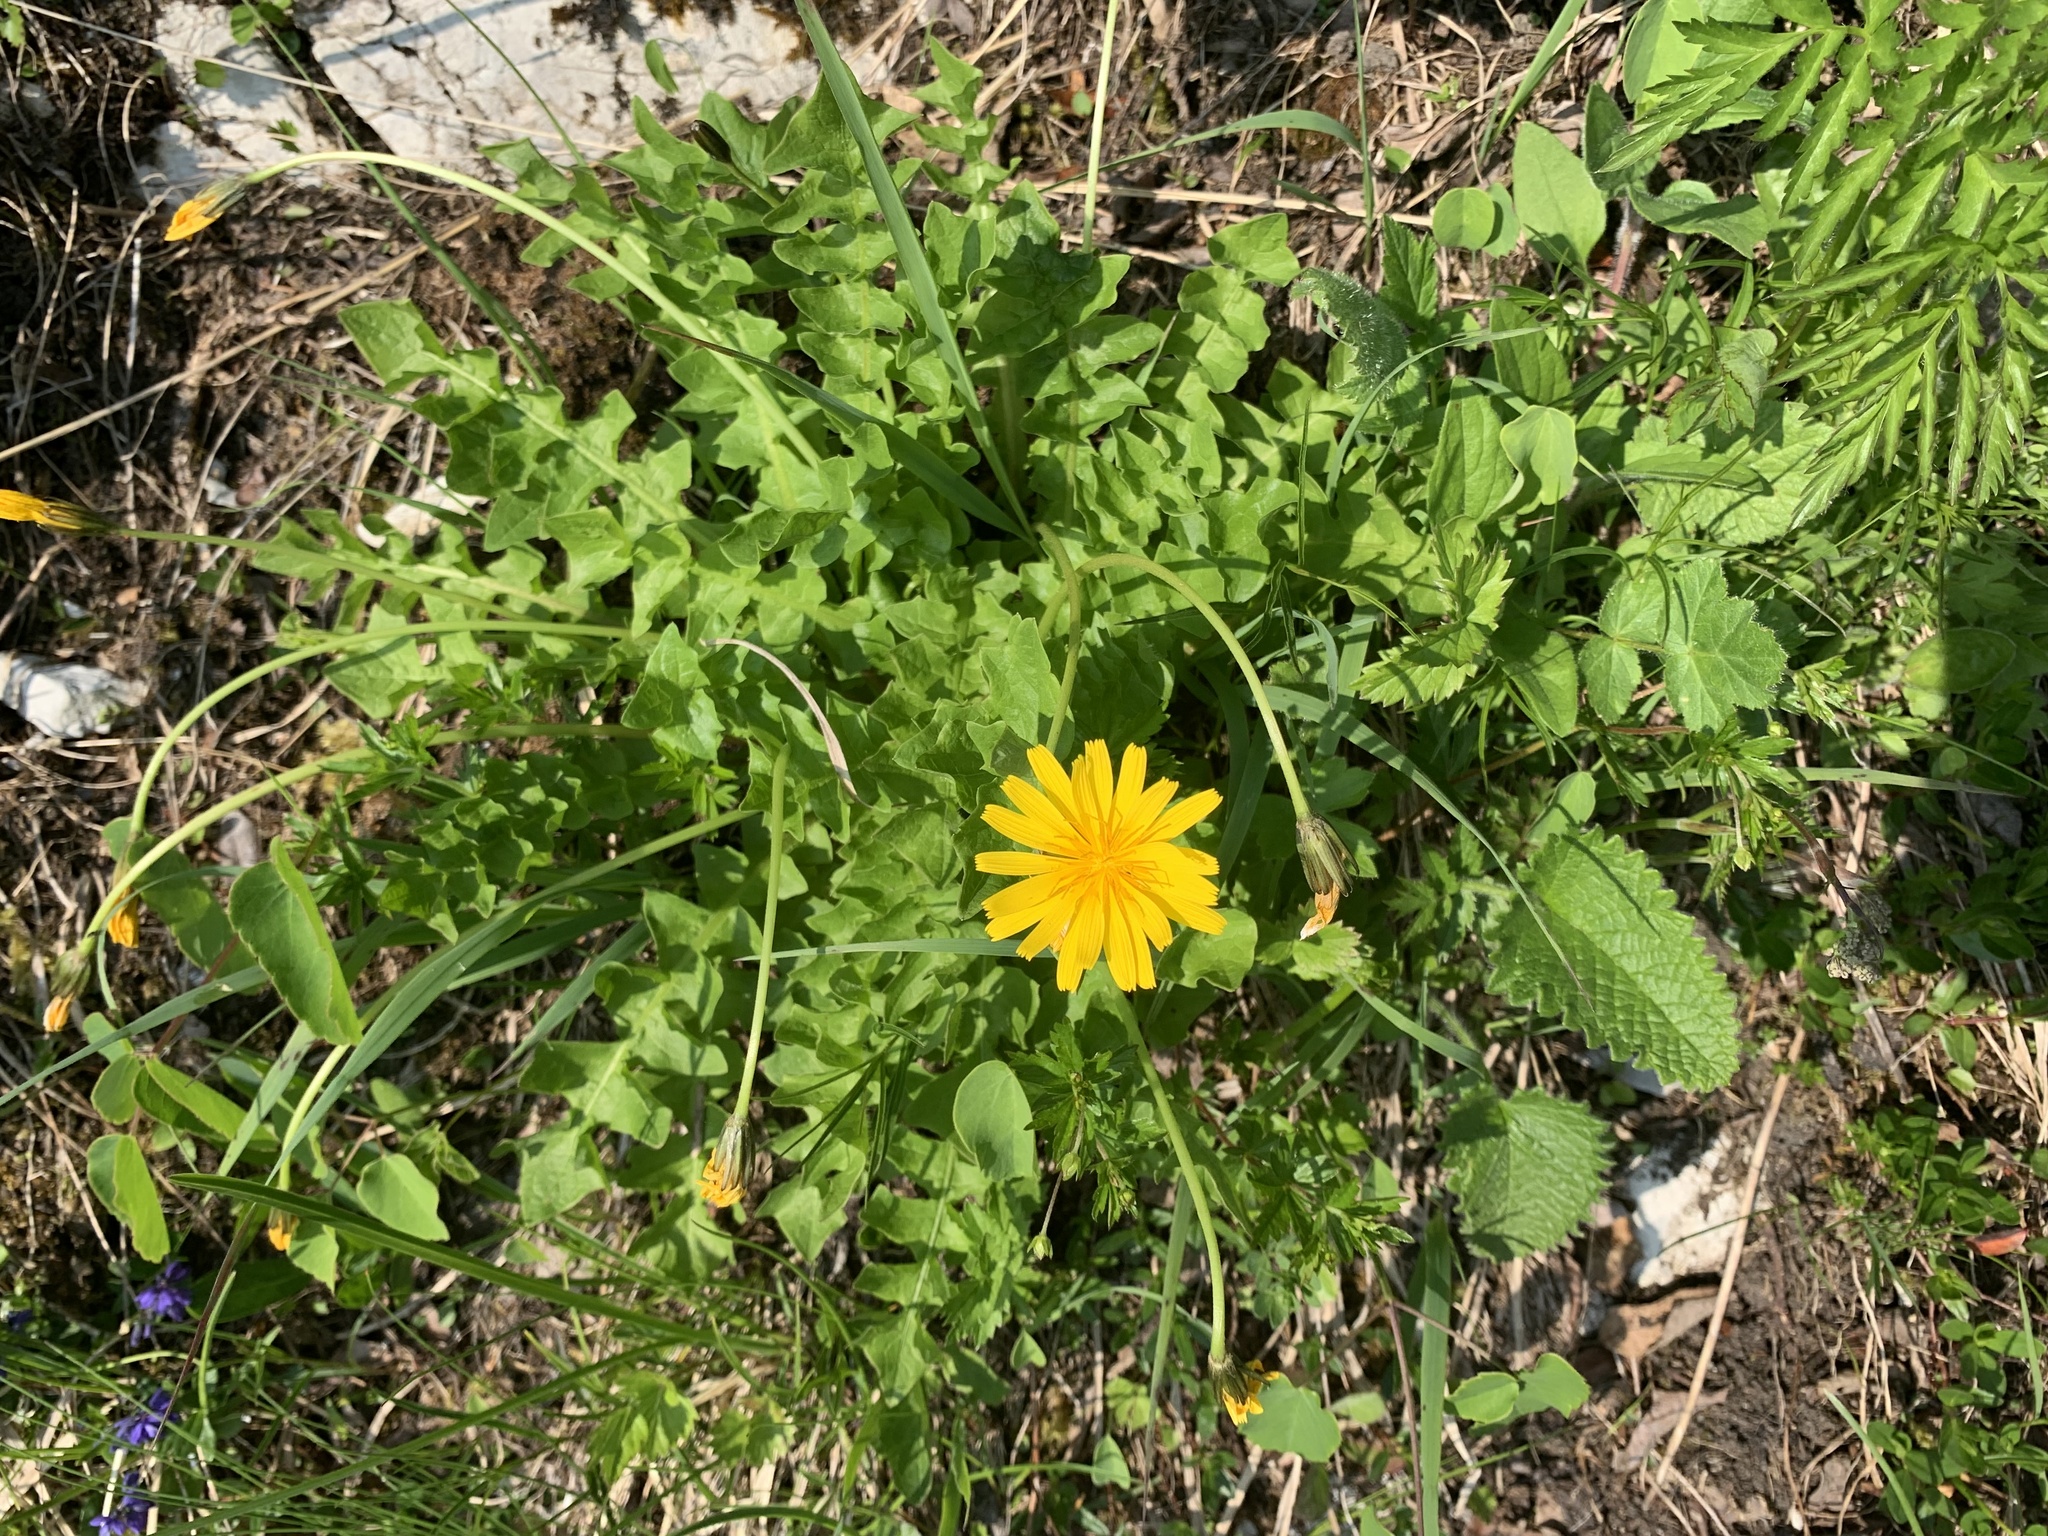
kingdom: Plantae
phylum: Tracheophyta
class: Magnoliopsida
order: Asterales
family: Asteraceae
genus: Aposeris
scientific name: Aposeris foetida
